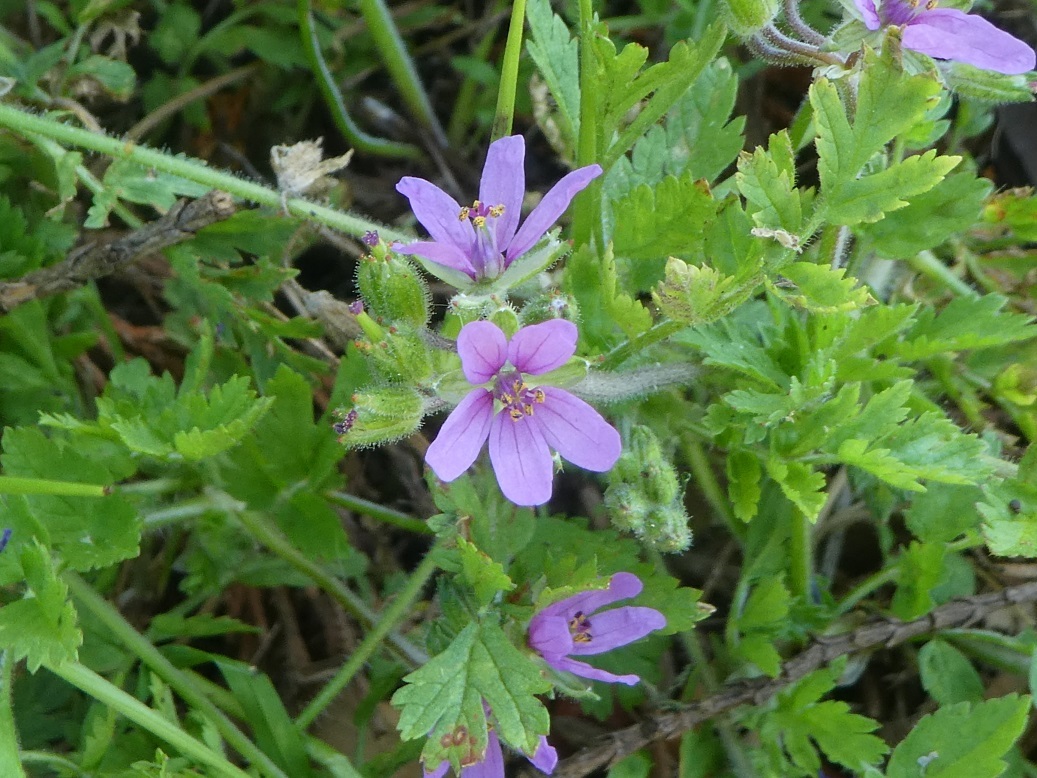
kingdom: Plantae
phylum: Tracheophyta
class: Magnoliopsida
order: Geraniales
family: Geraniaceae
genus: Erodium
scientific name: Erodium moschatum
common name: Musk stork's-bill
